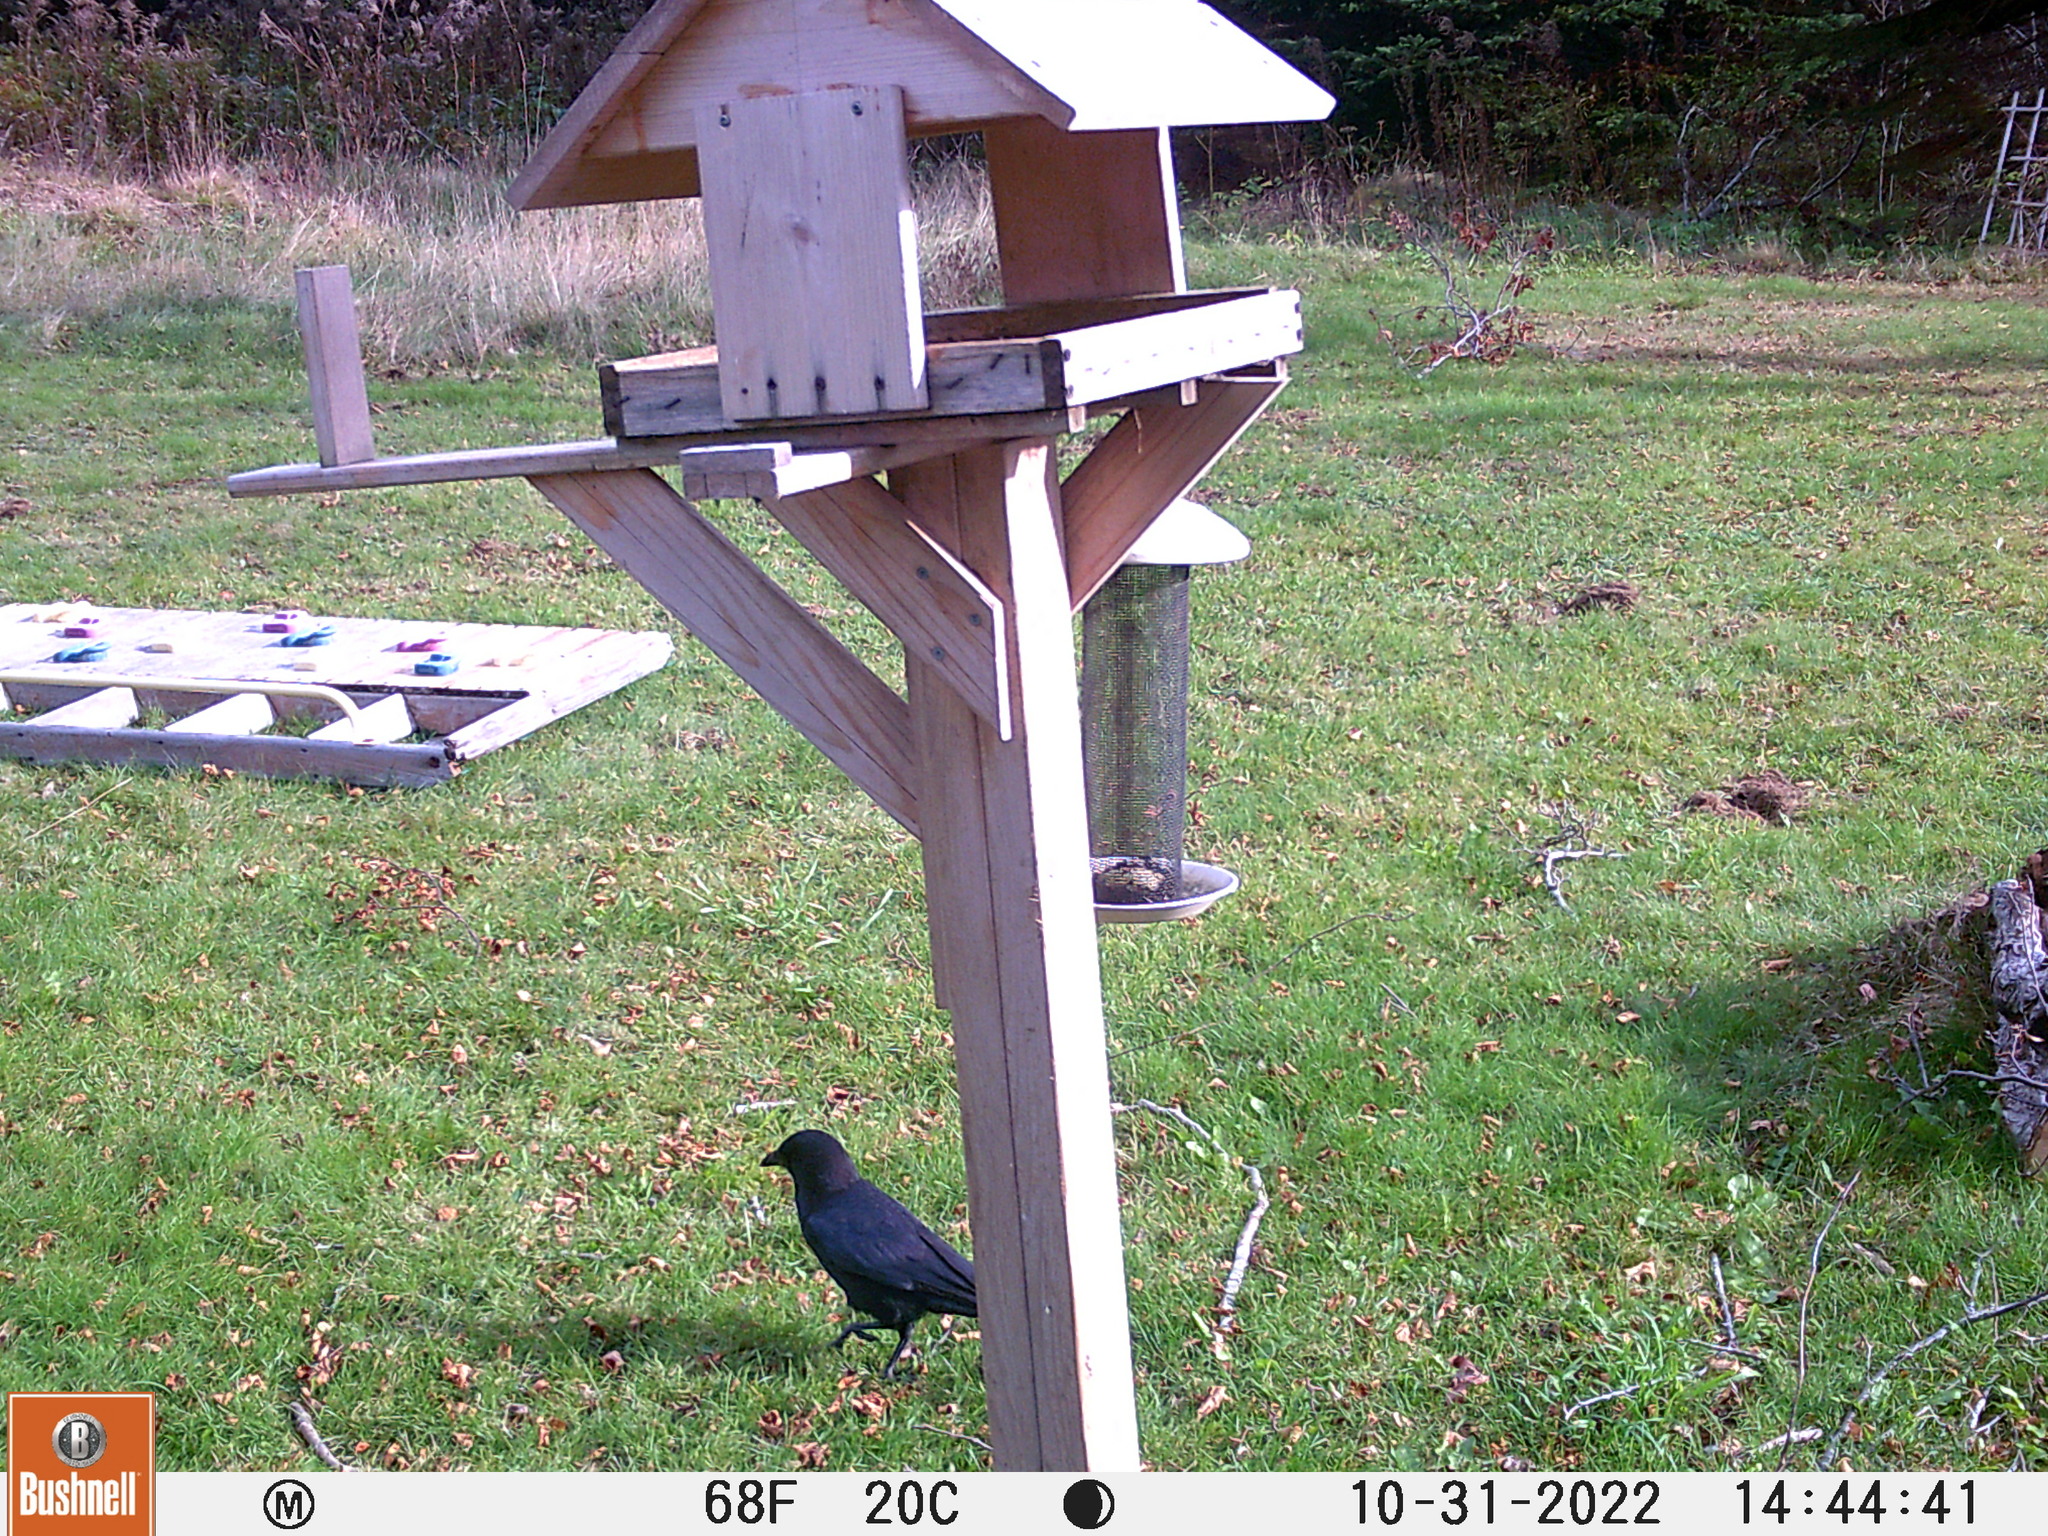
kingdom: Animalia
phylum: Chordata
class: Aves
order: Passeriformes
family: Corvidae
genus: Corvus
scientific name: Corvus brachyrhynchos
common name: American crow
